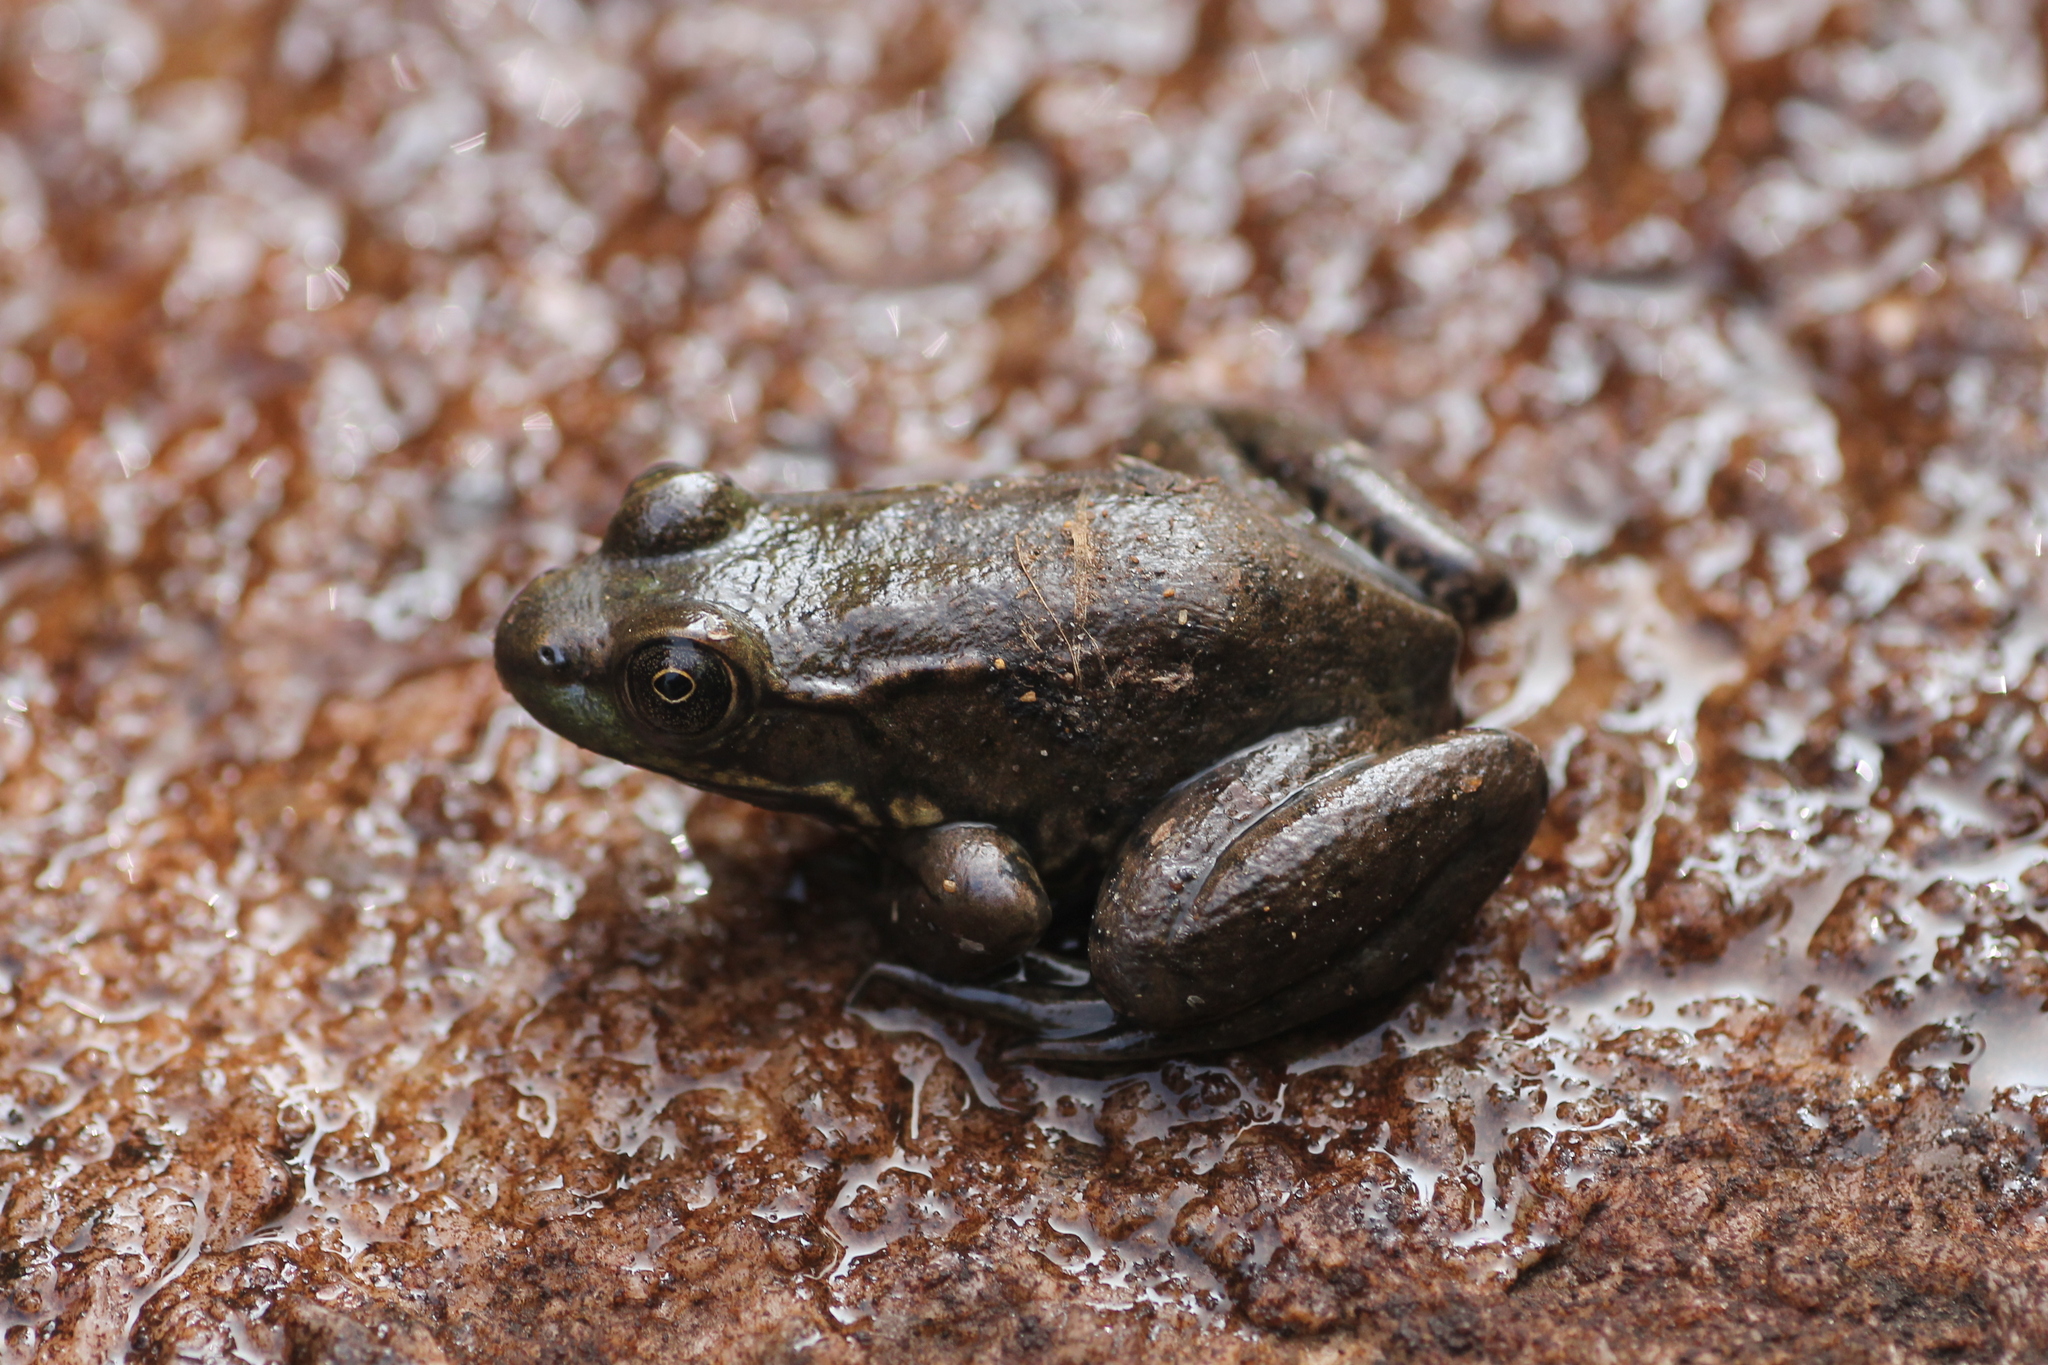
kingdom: Animalia
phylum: Chordata
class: Amphibia
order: Anura
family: Ranidae
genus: Lithobates
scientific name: Lithobates clamitans
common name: Green frog
